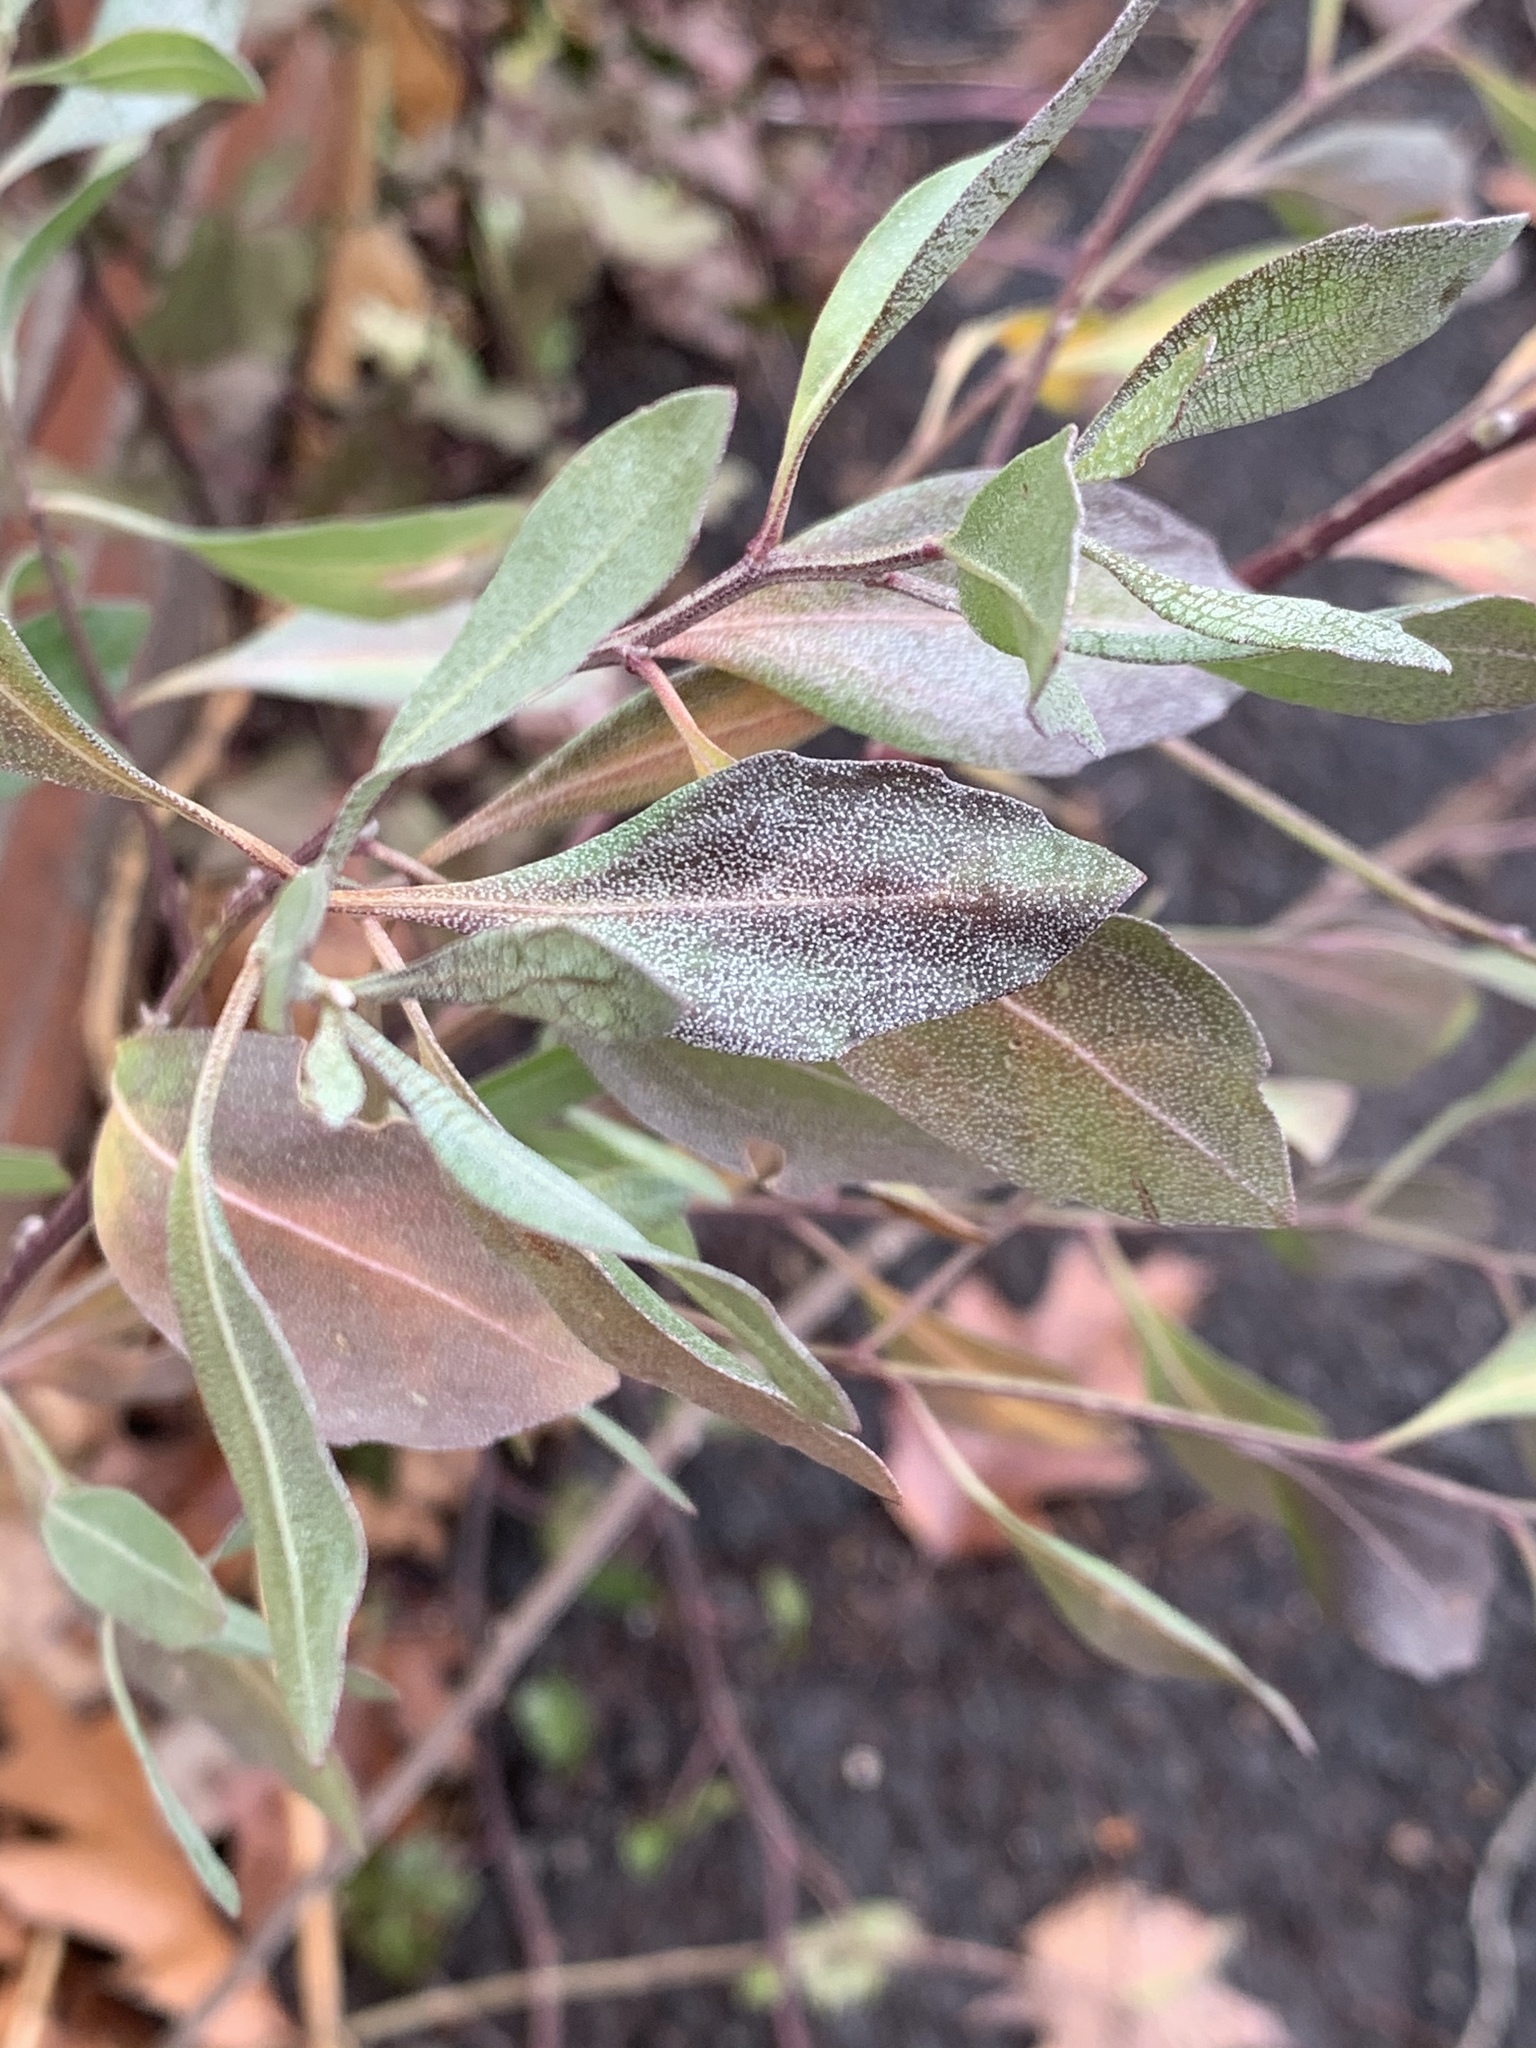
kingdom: Plantae
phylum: Tracheophyta
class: Magnoliopsida
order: Asterales
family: Asteraceae
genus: Baccharis
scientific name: Baccharis halimifolia
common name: Eastern baccharis
